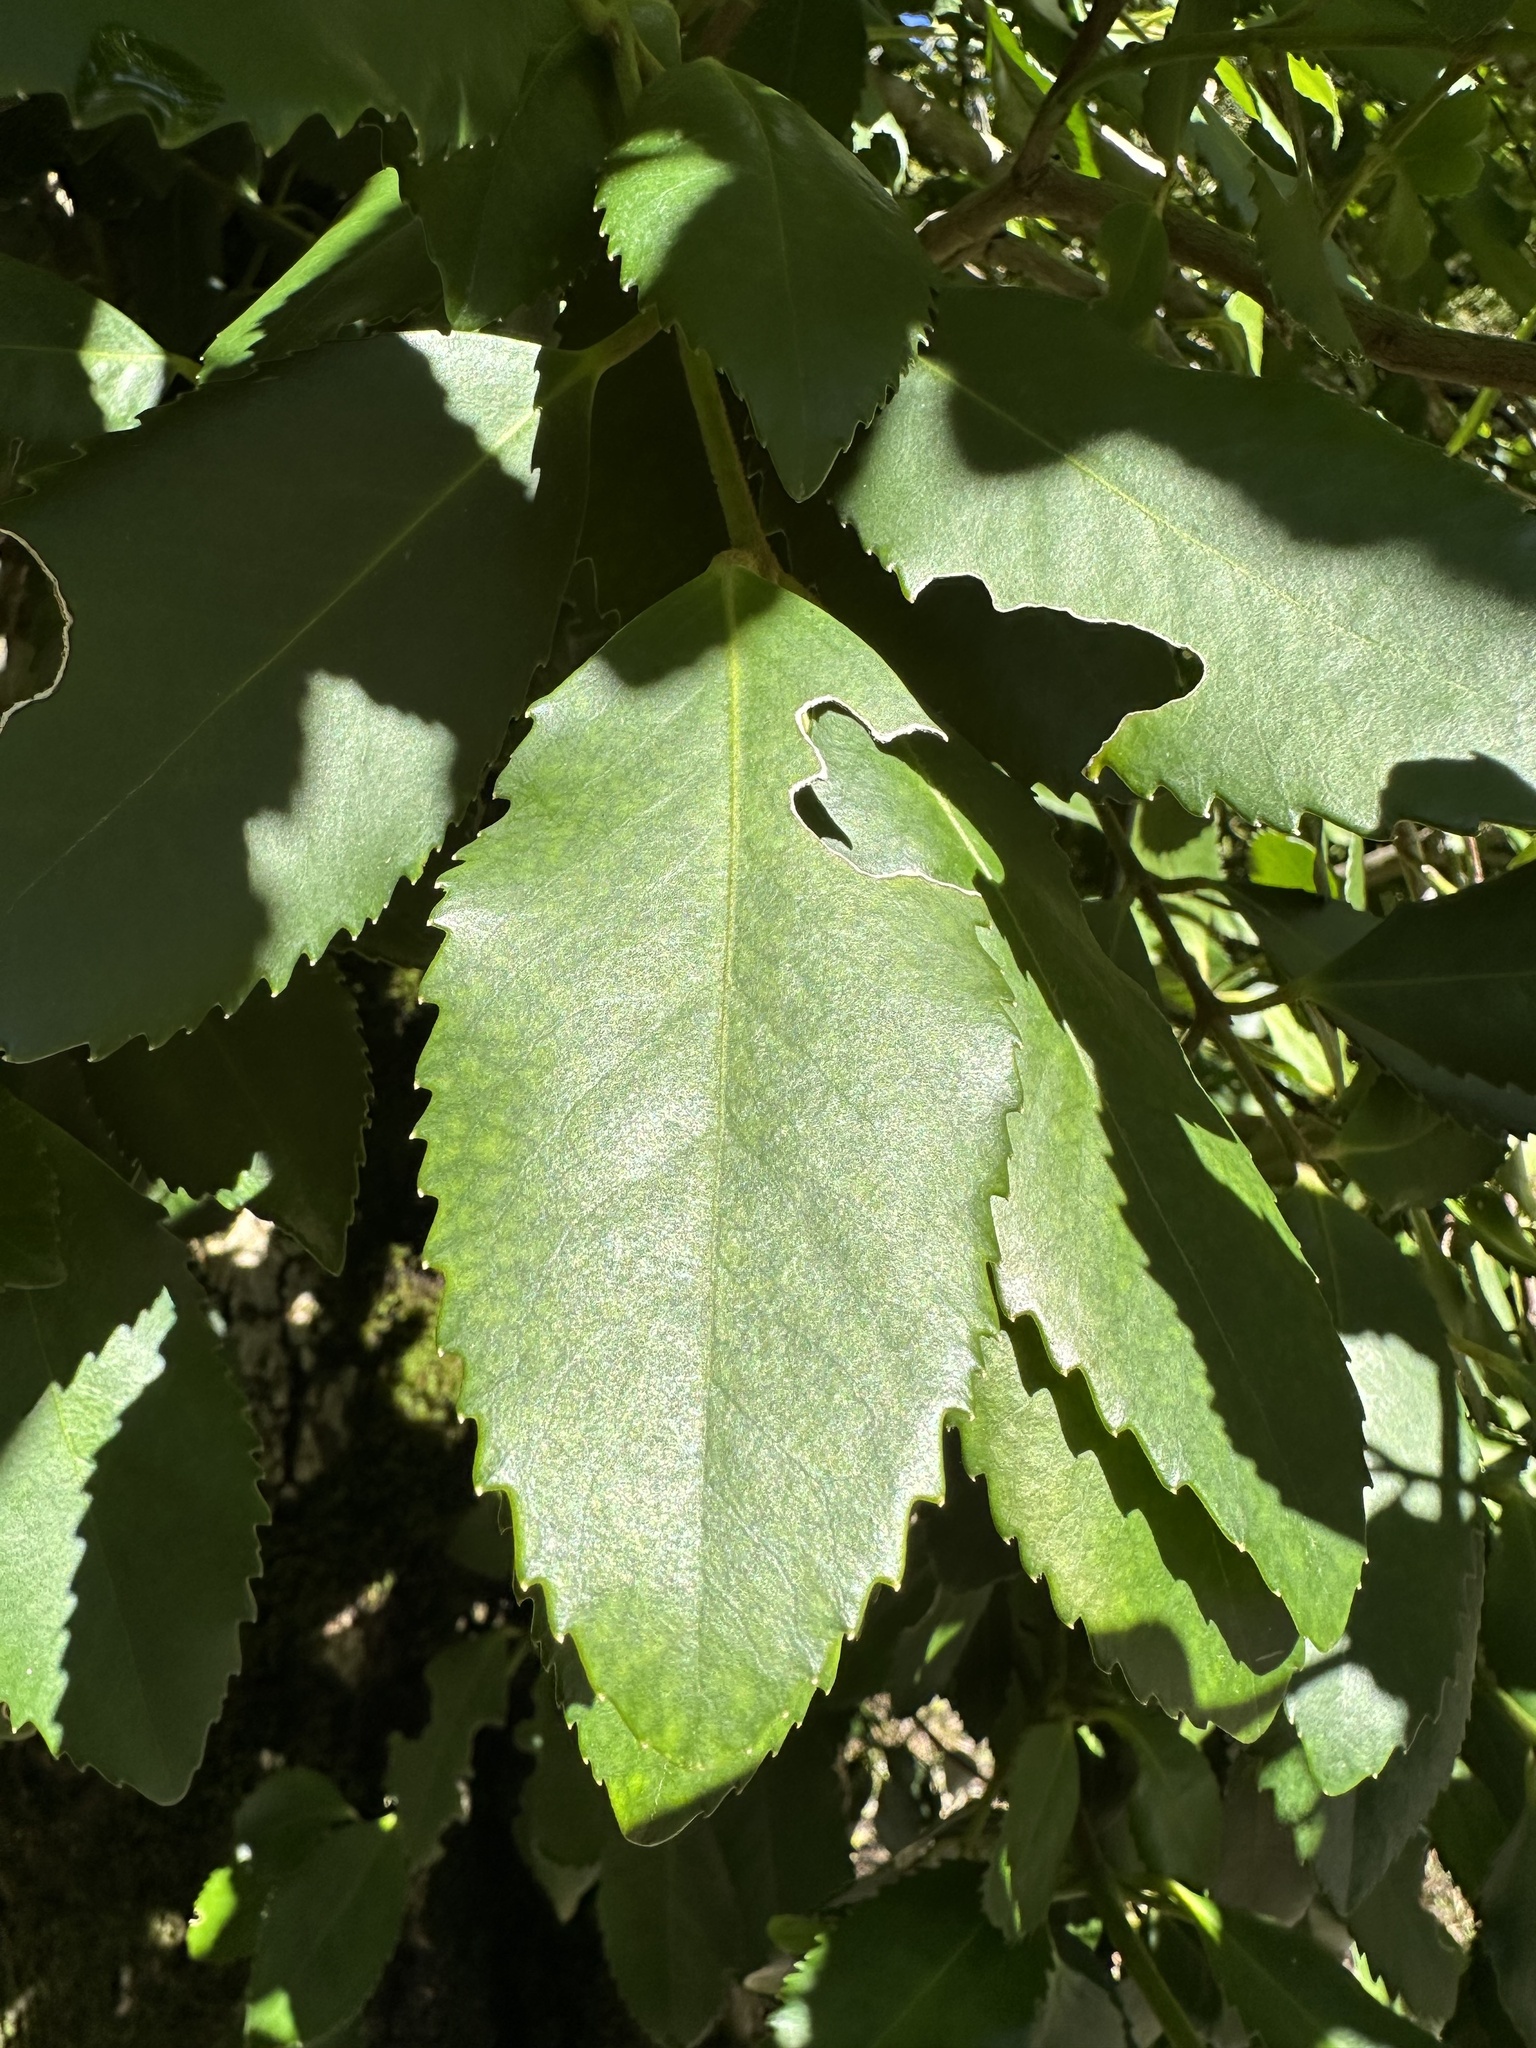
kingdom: Plantae
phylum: Tracheophyta
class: Magnoliopsida
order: Laurales
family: Atherospermataceae
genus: Laureliopsis
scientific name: Laureliopsis philippiana
